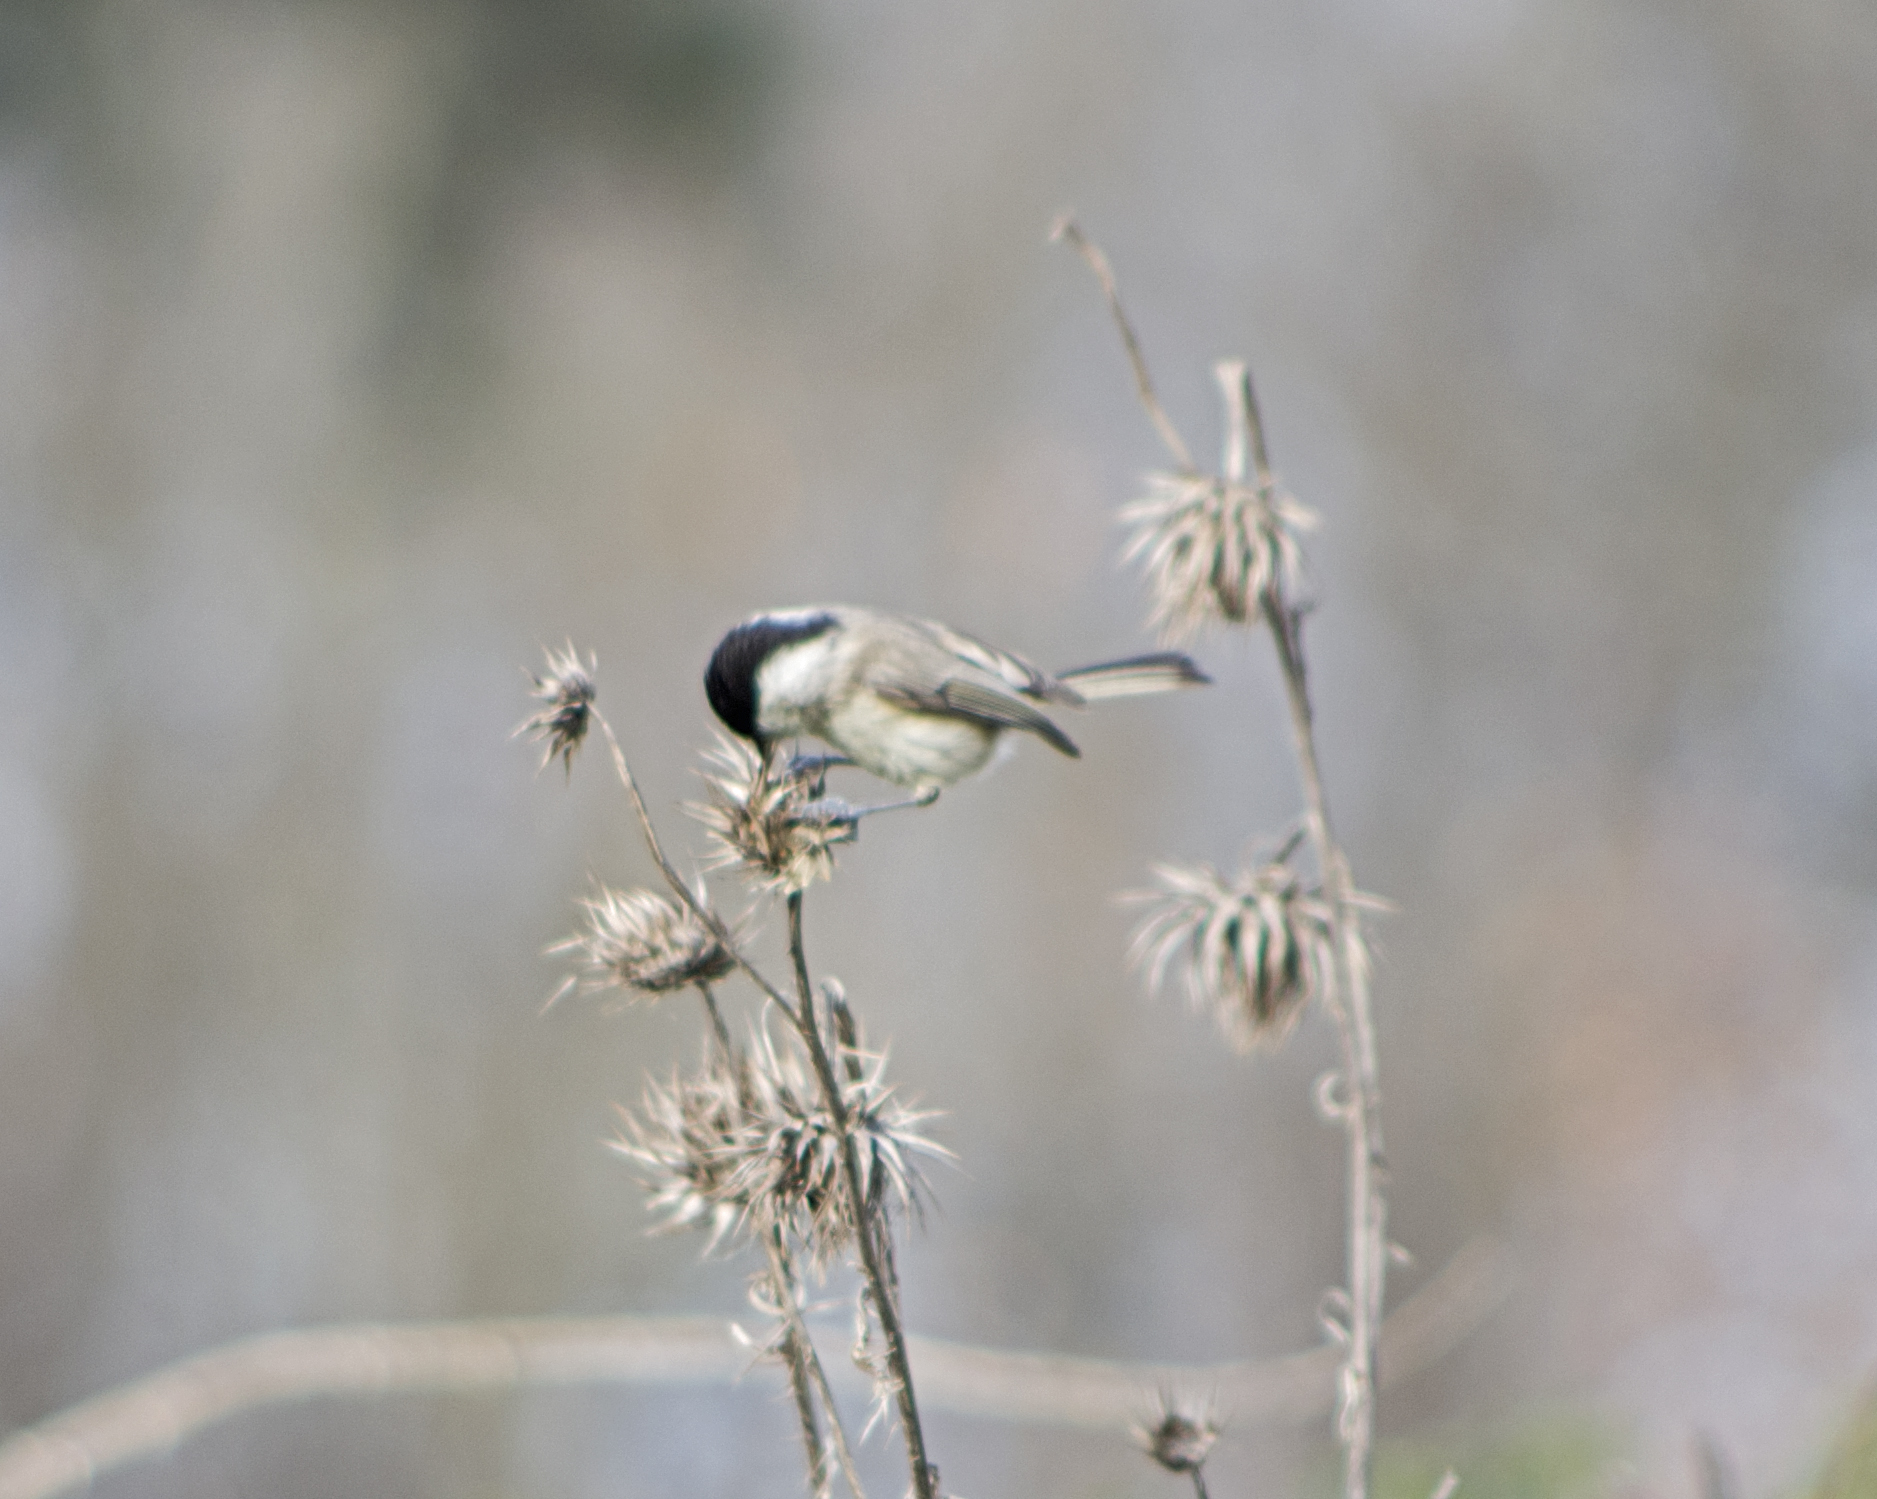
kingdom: Animalia
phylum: Chordata
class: Aves
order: Passeriformes
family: Paridae
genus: Poecile
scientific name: Poecile palustris
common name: Marsh tit
